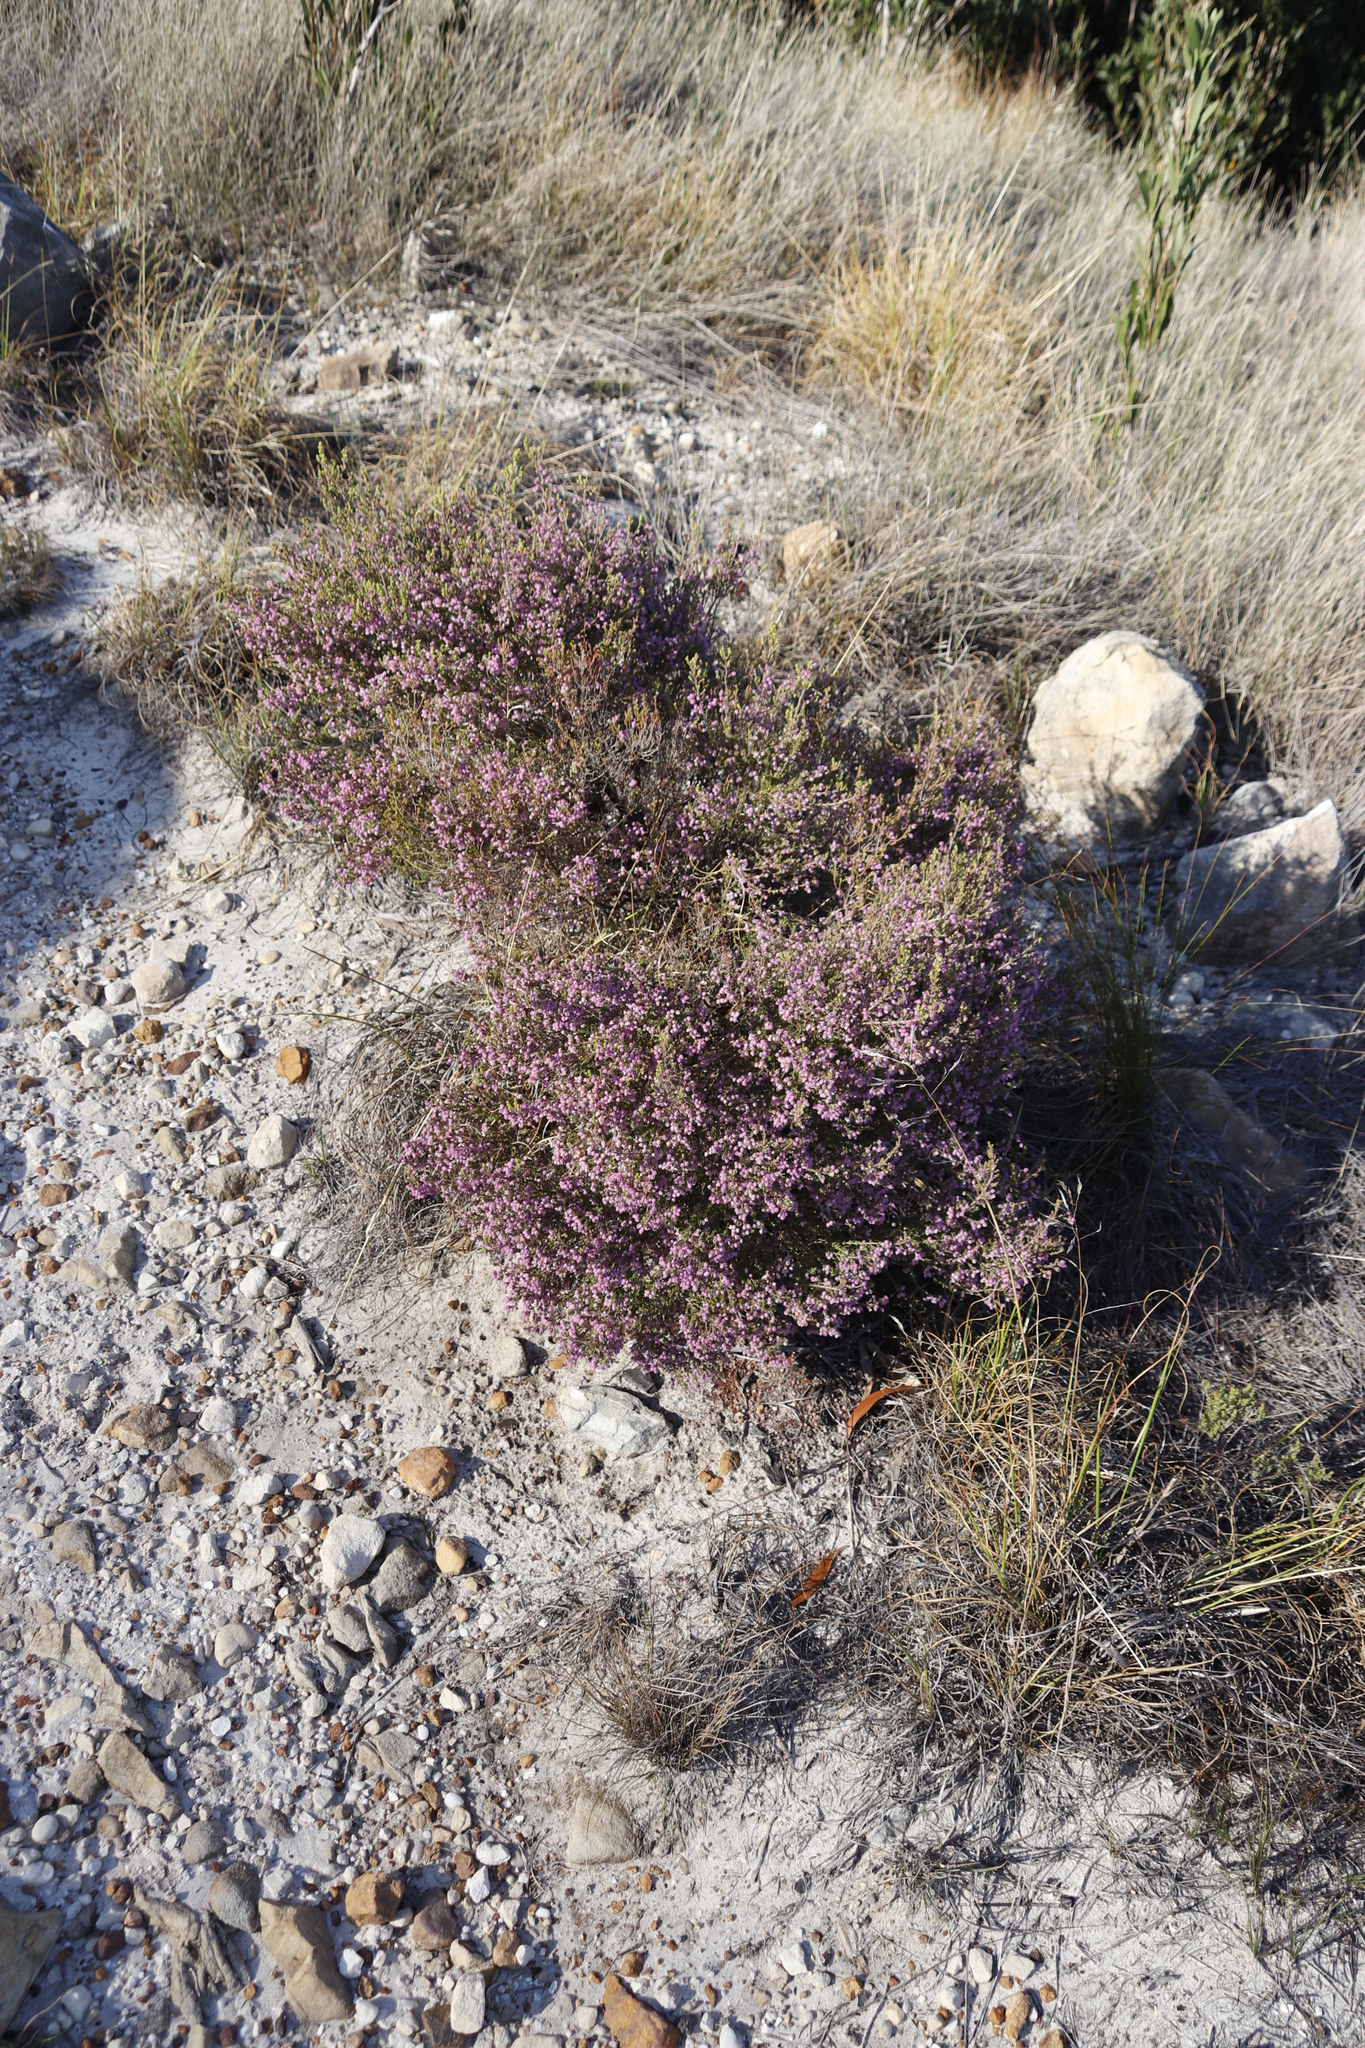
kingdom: Plantae
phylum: Tracheophyta
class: Magnoliopsida
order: Ericales
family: Ericaceae
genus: Erica
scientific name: Erica hirtiflora
